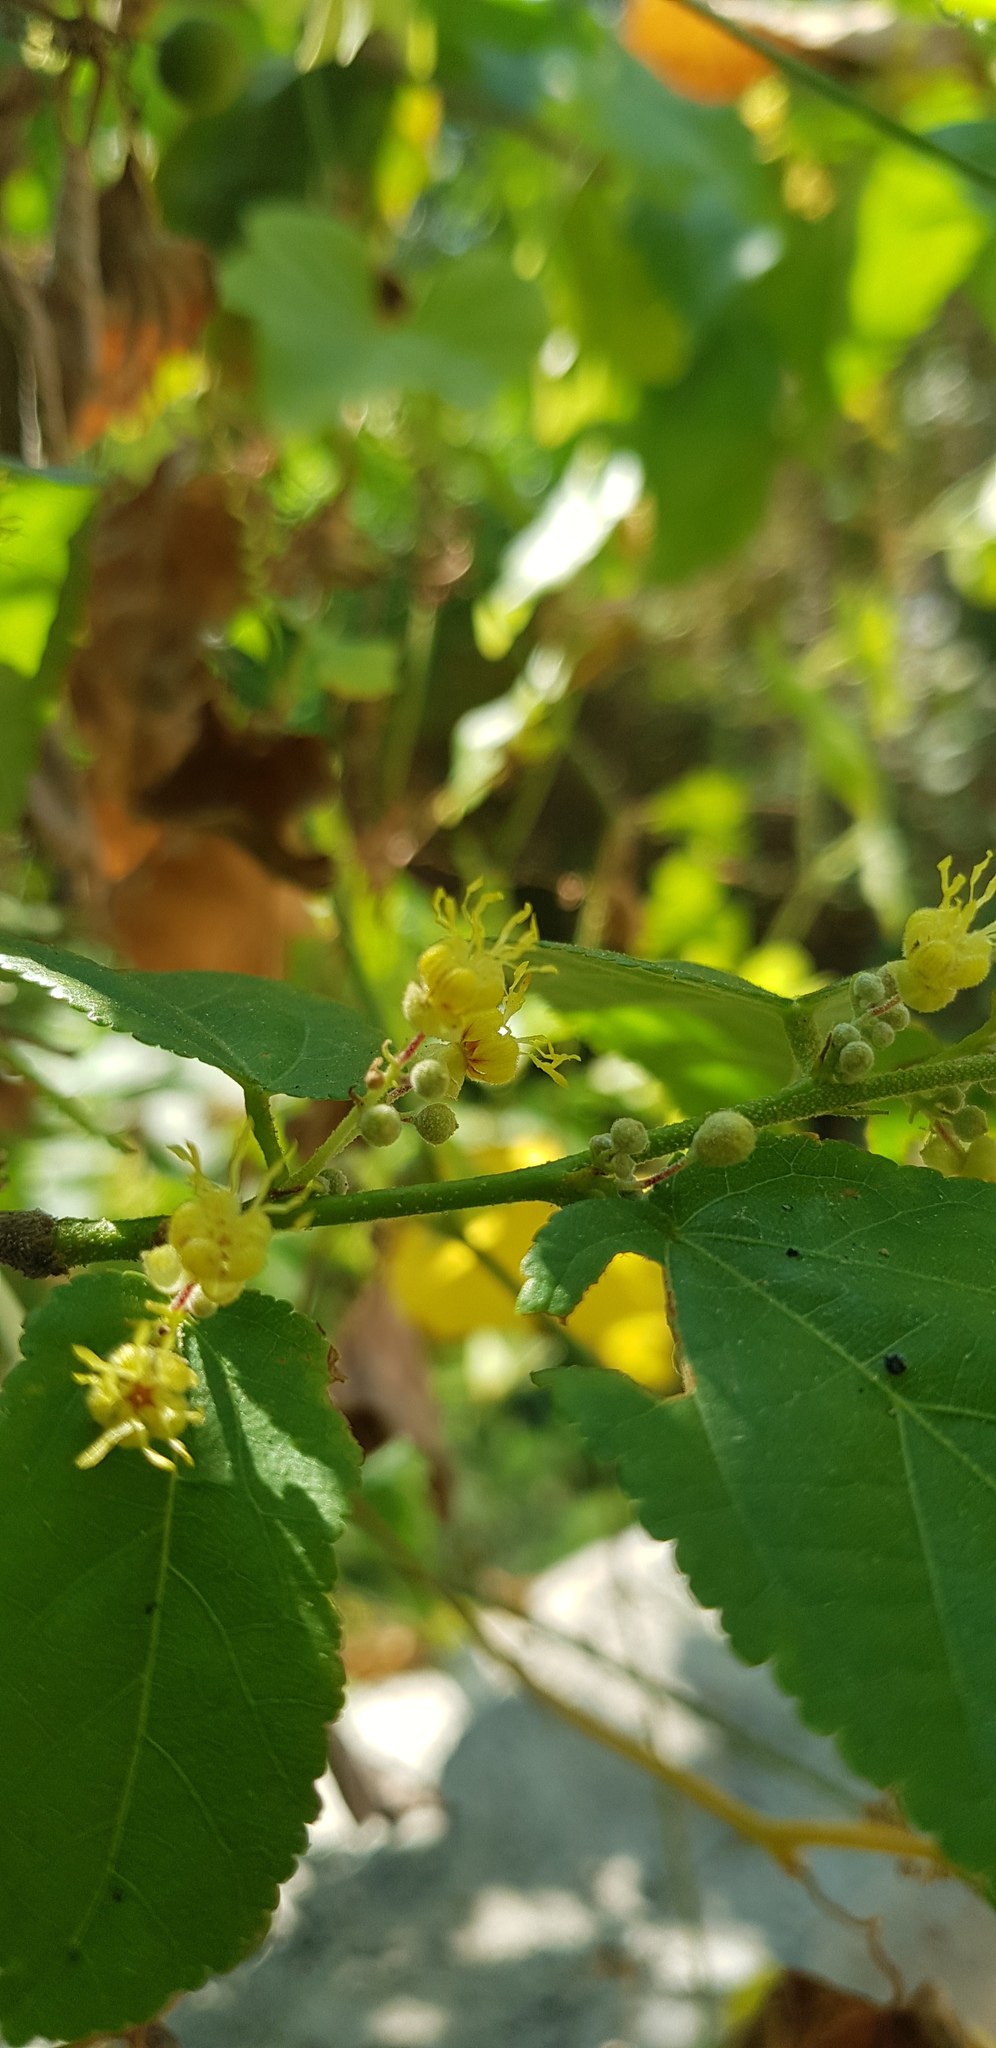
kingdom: Plantae
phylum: Tracheophyta
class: Magnoliopsida
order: Malvales
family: Malvaceae
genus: Guazuma
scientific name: Guazuma ulmifolia
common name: Bastard-cedar
